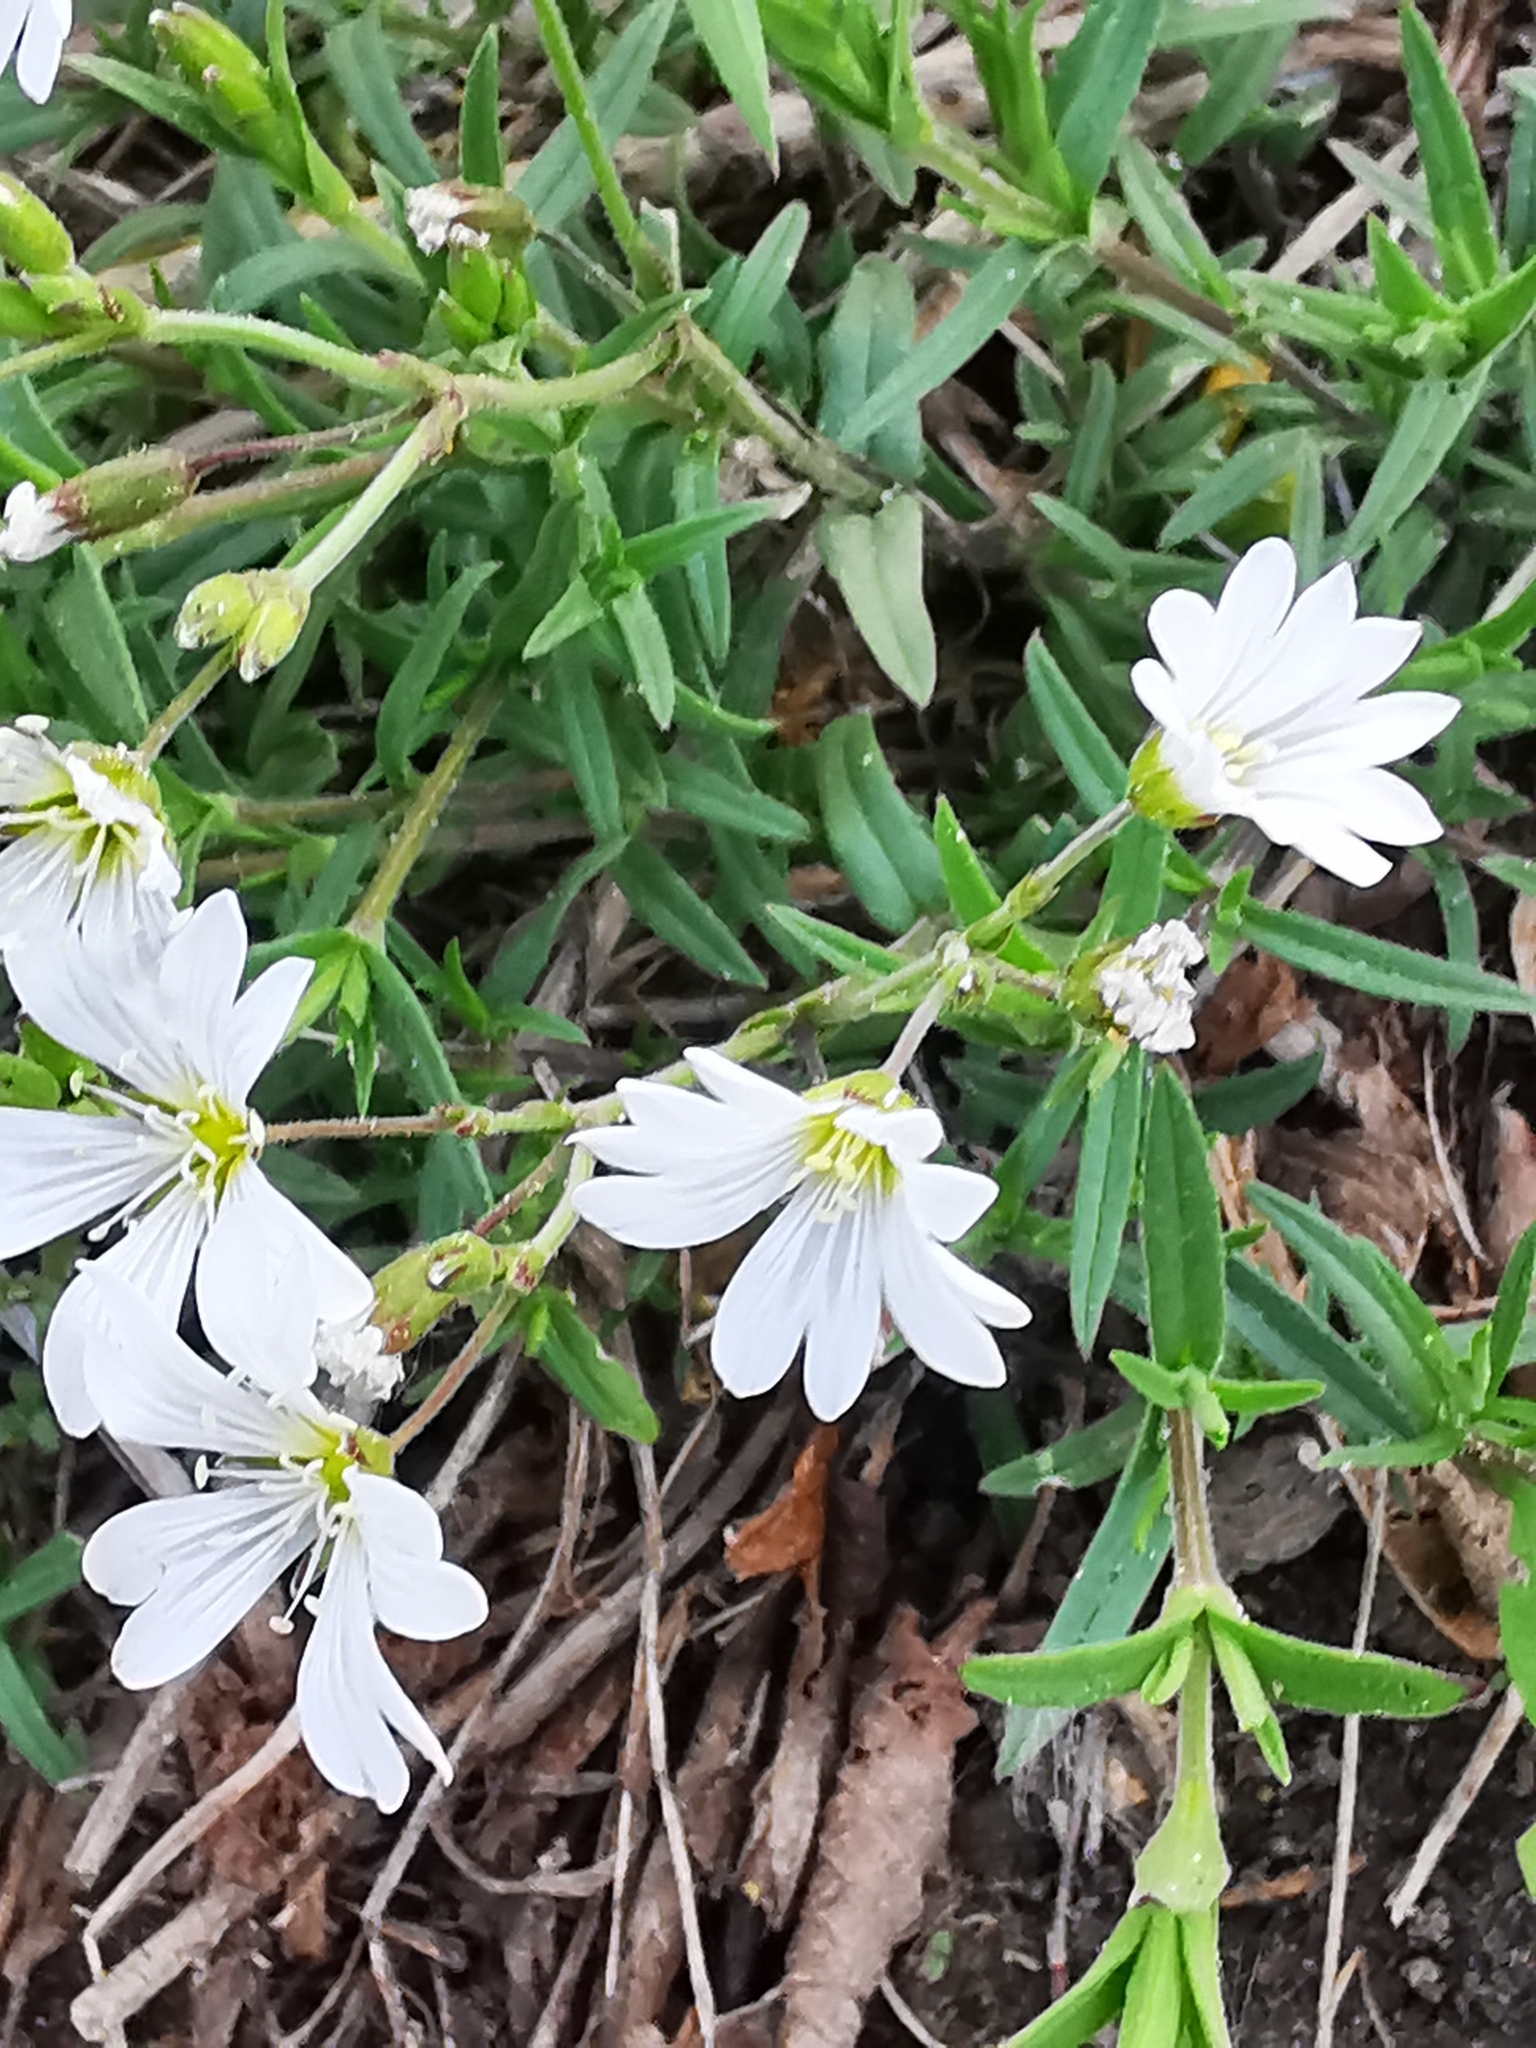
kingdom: Plantae
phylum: Tracheophyta
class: Magnoliopsida
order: Caryophyllales
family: Caryophyllaceae
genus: Cerastium
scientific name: Cerastium arvense
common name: Field mouse-ear
